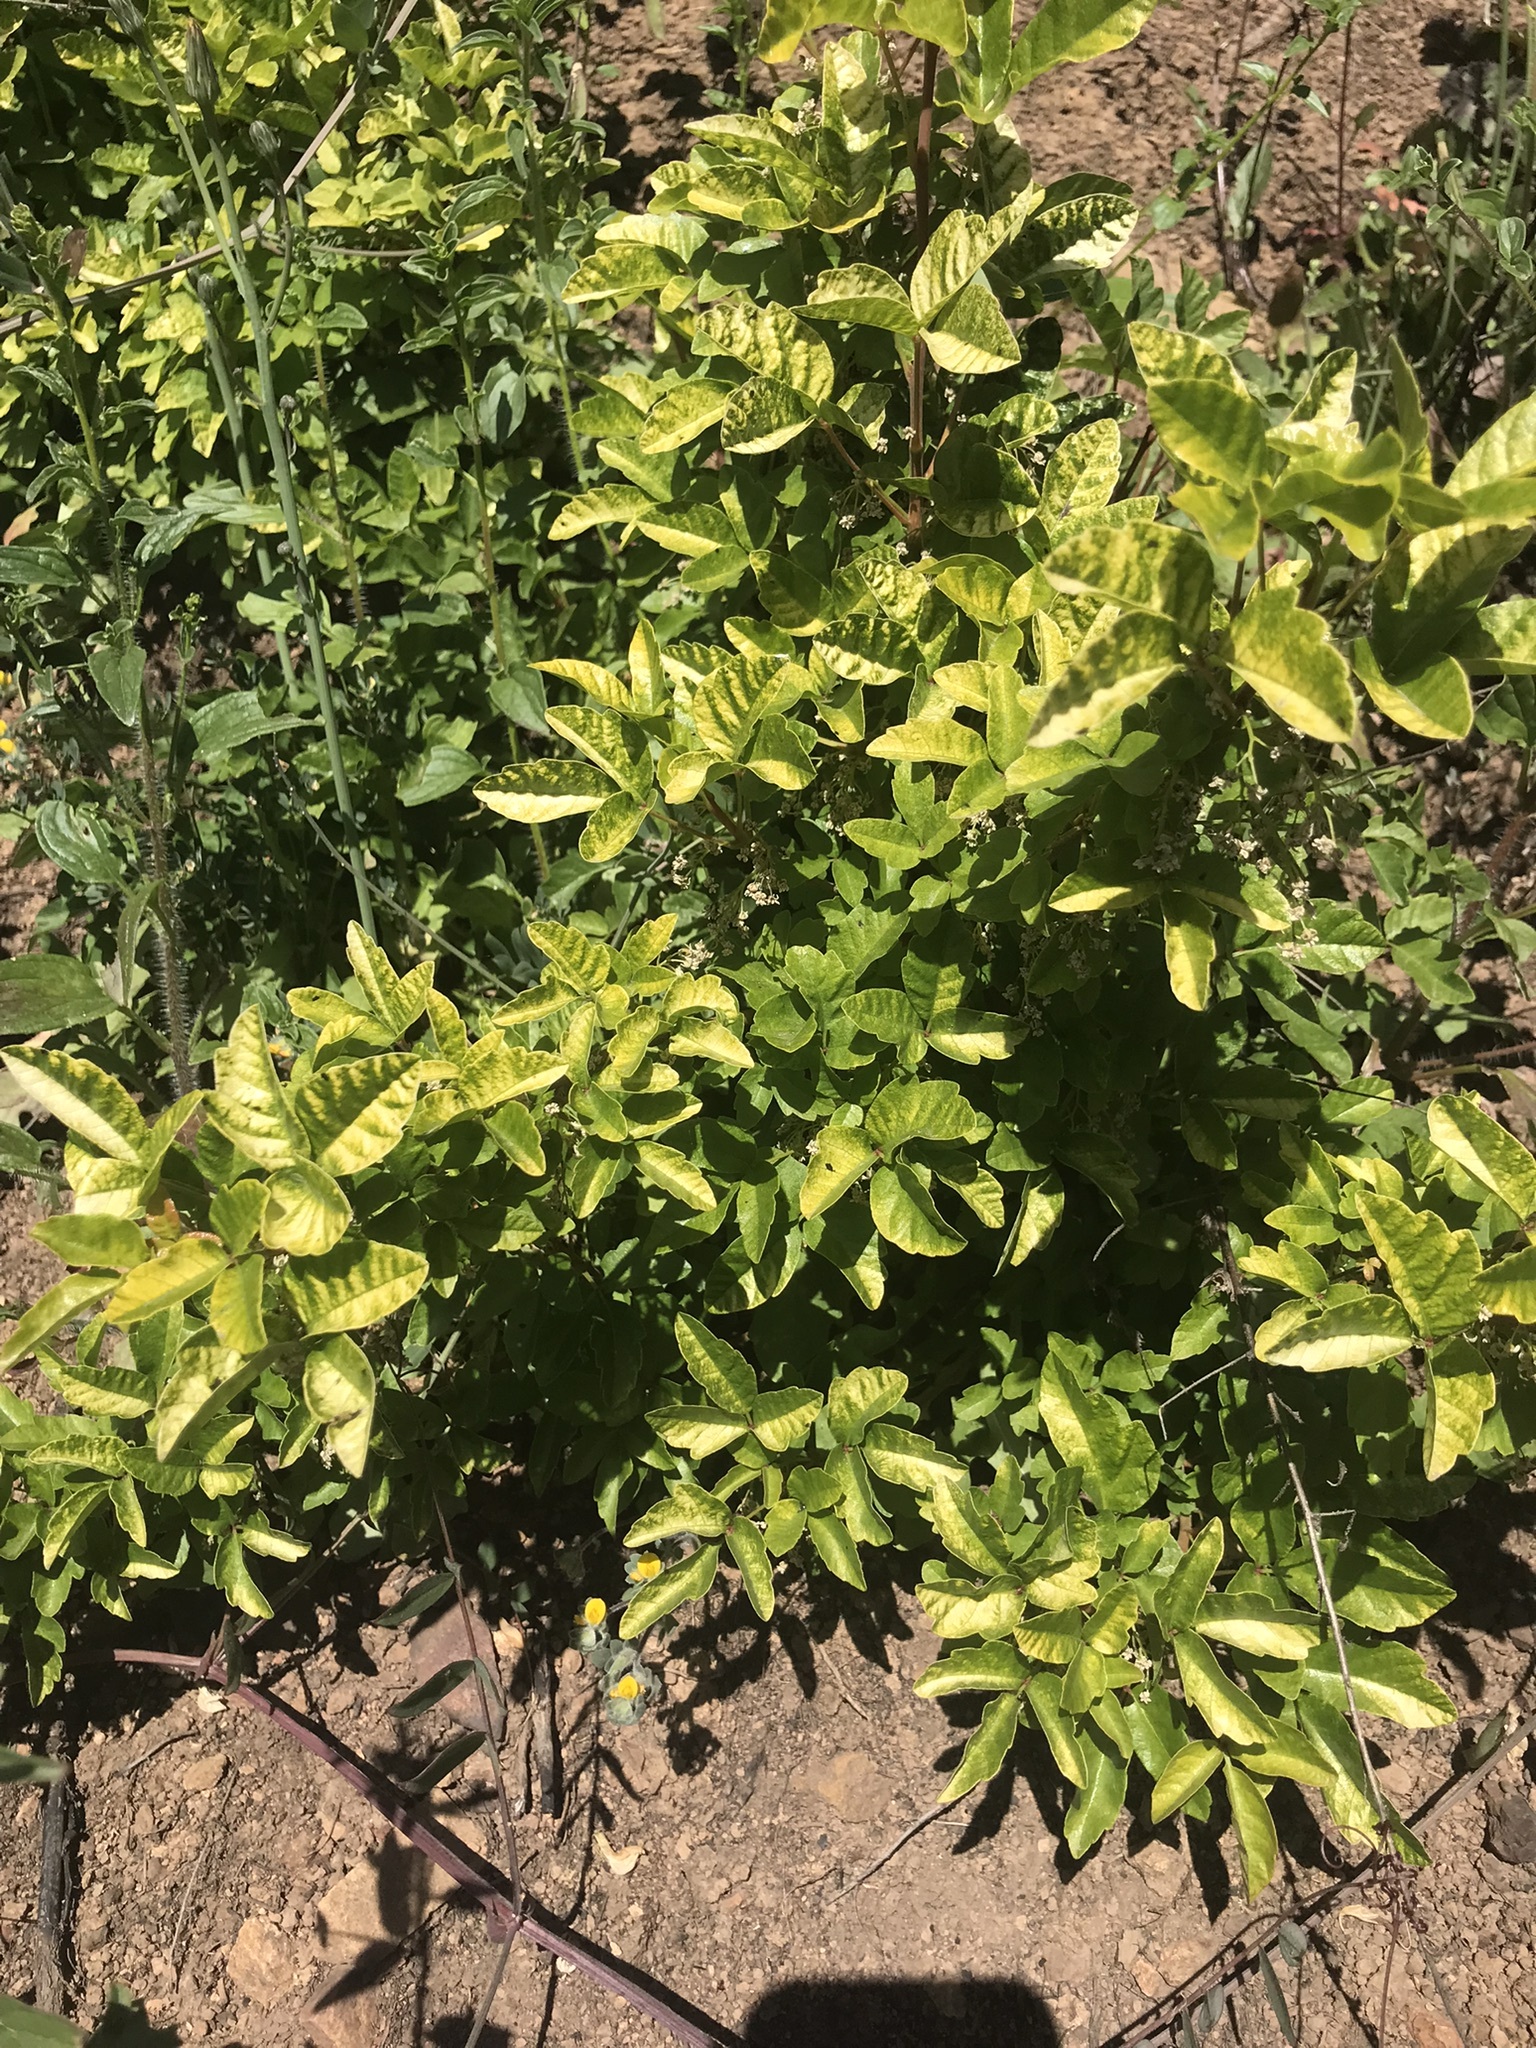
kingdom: Plantae
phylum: Tracheophyta
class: Magnoliopsida
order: Sapindales
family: Anacardiaceae
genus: Toxicodendron
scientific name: Toxicodendron diversilobum
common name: Pacific poison-oak
